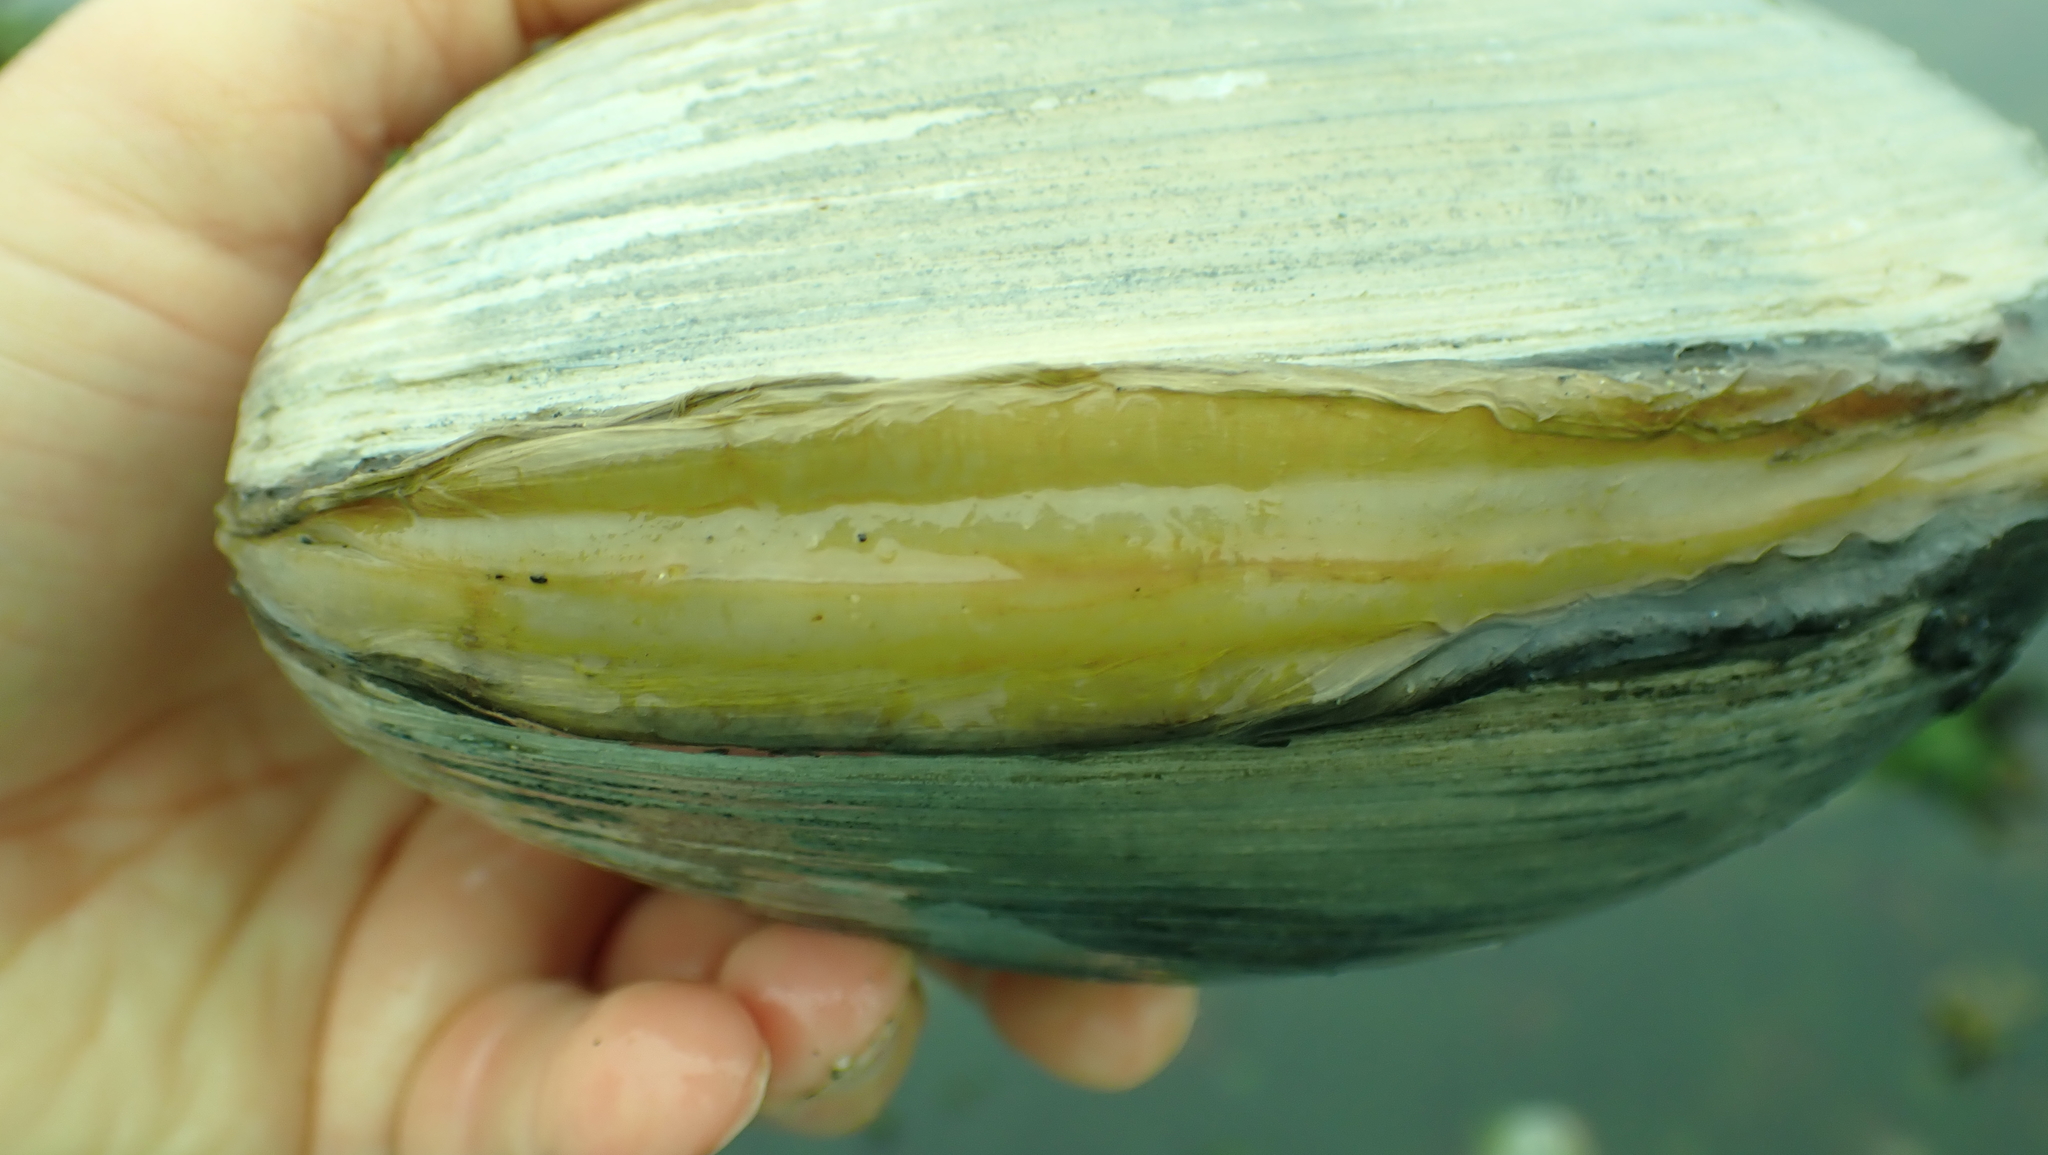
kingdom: Animalia
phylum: Mollusca
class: Bivalvia
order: Venerida
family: Mactridae
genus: Tresus
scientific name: Tresus nuttallii
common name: Pacific gaper clam
